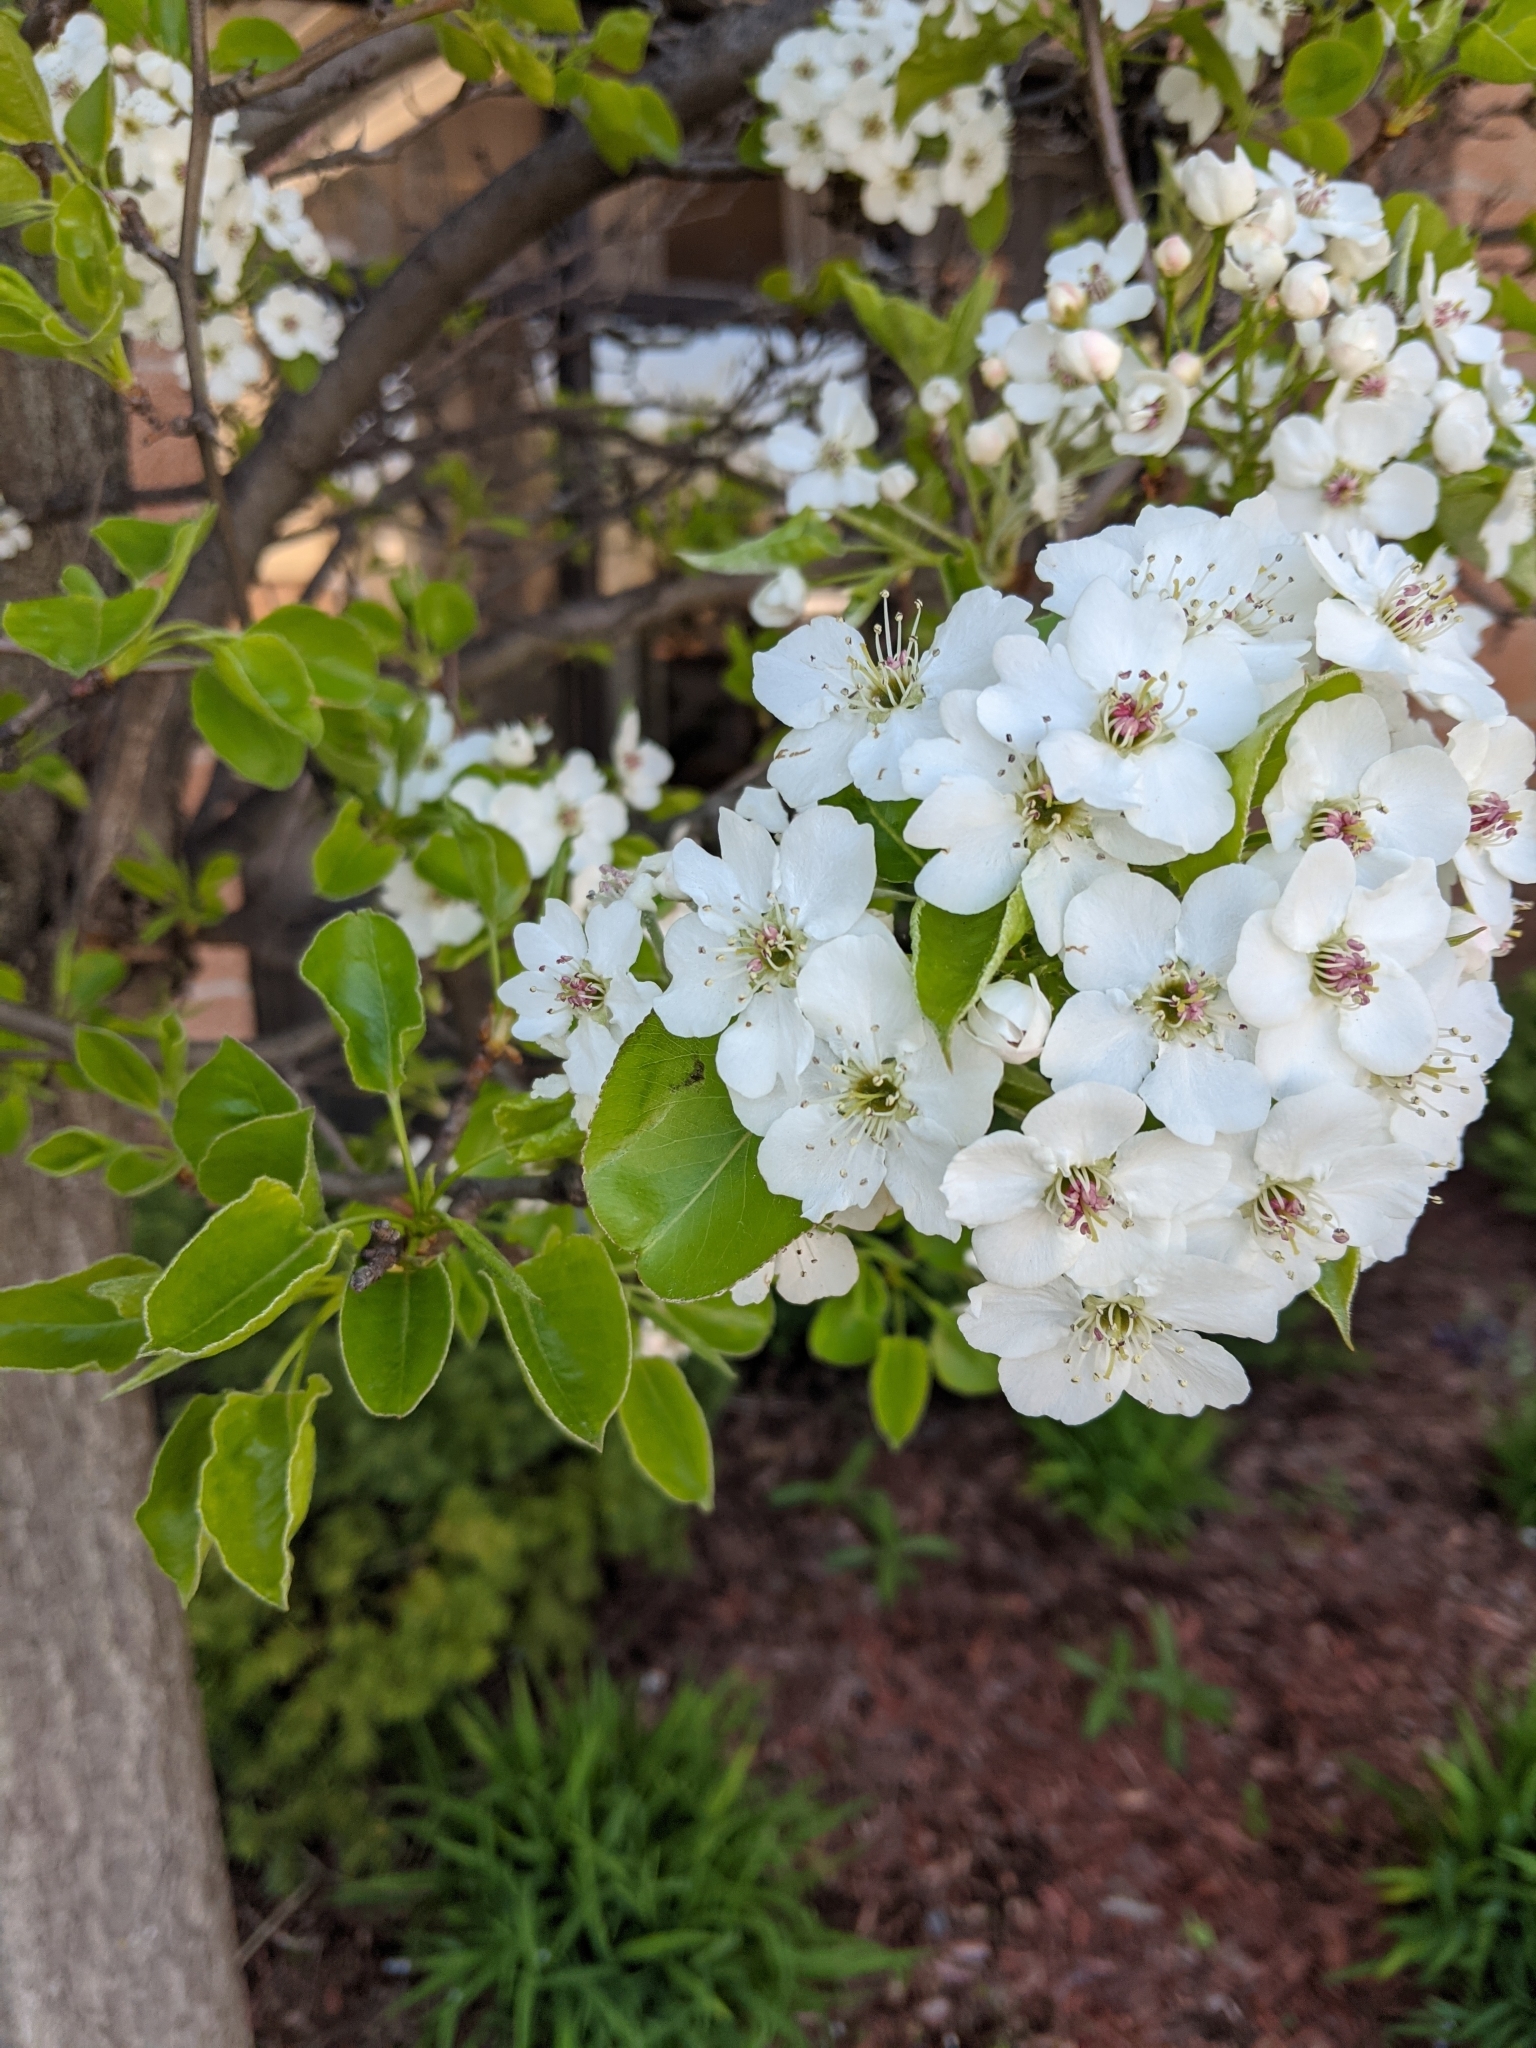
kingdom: Plantae
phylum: Tracheophyta
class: Magnoliopsida
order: Rosales
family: Rosaceae
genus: Pyrus
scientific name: Pyrus calleryana
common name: Callery pear
